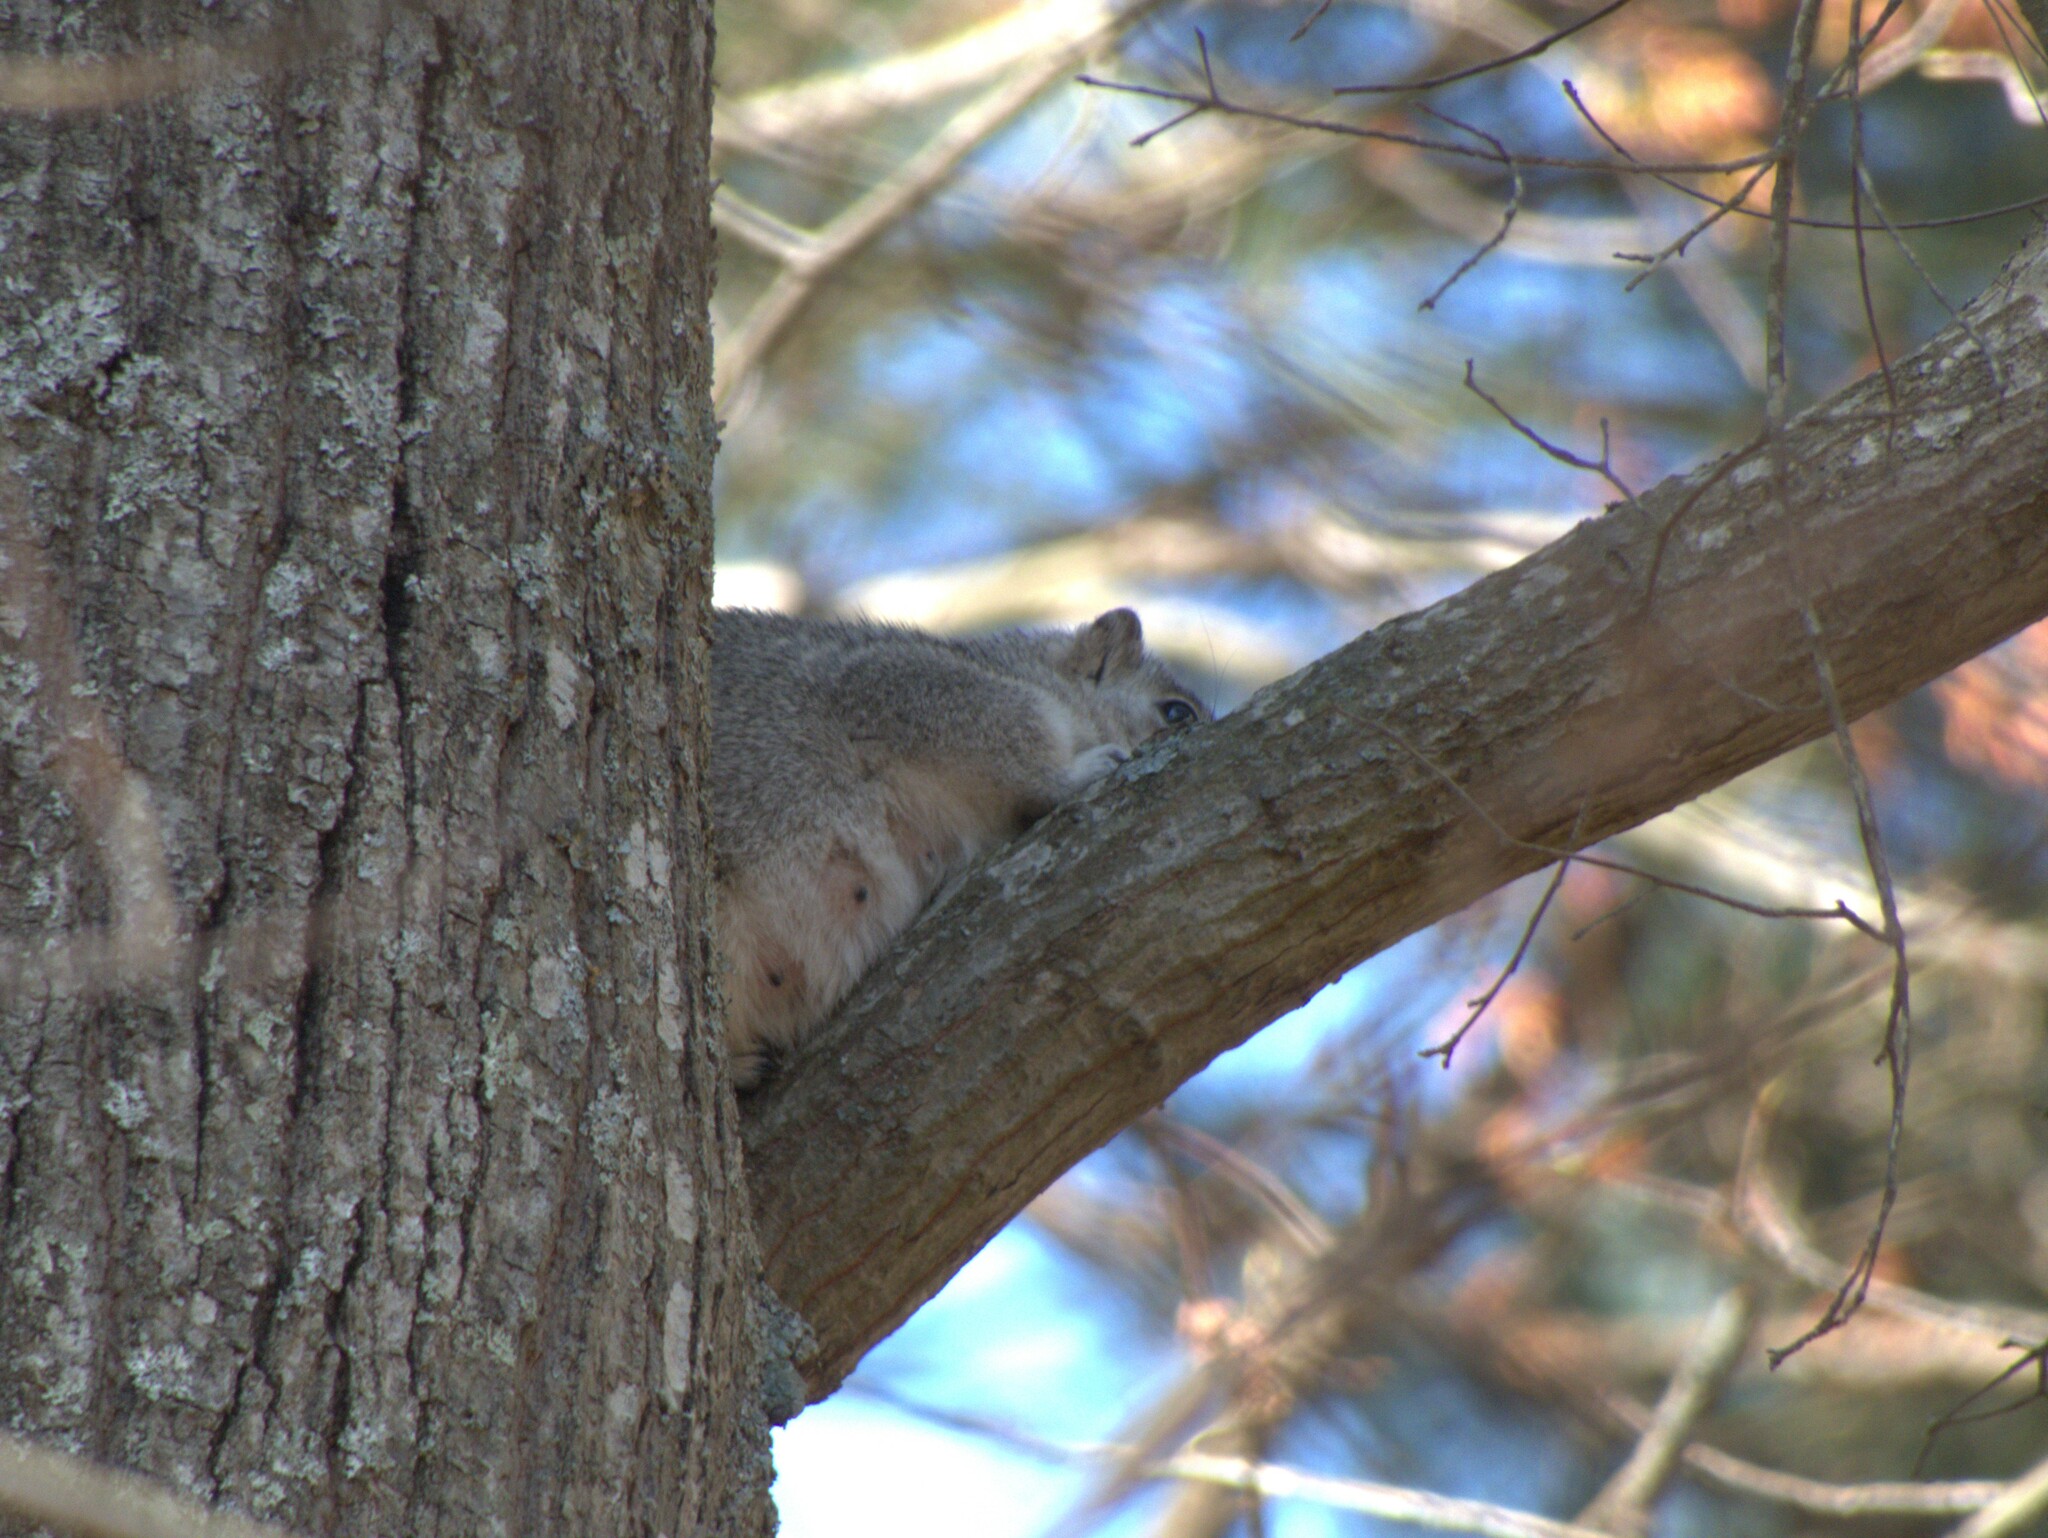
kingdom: Animalia
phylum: Chordata
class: Mammalia
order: Rodentia
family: Sciuridae
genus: Sciurus
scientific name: Sciurus niger
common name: Fox squirrel
